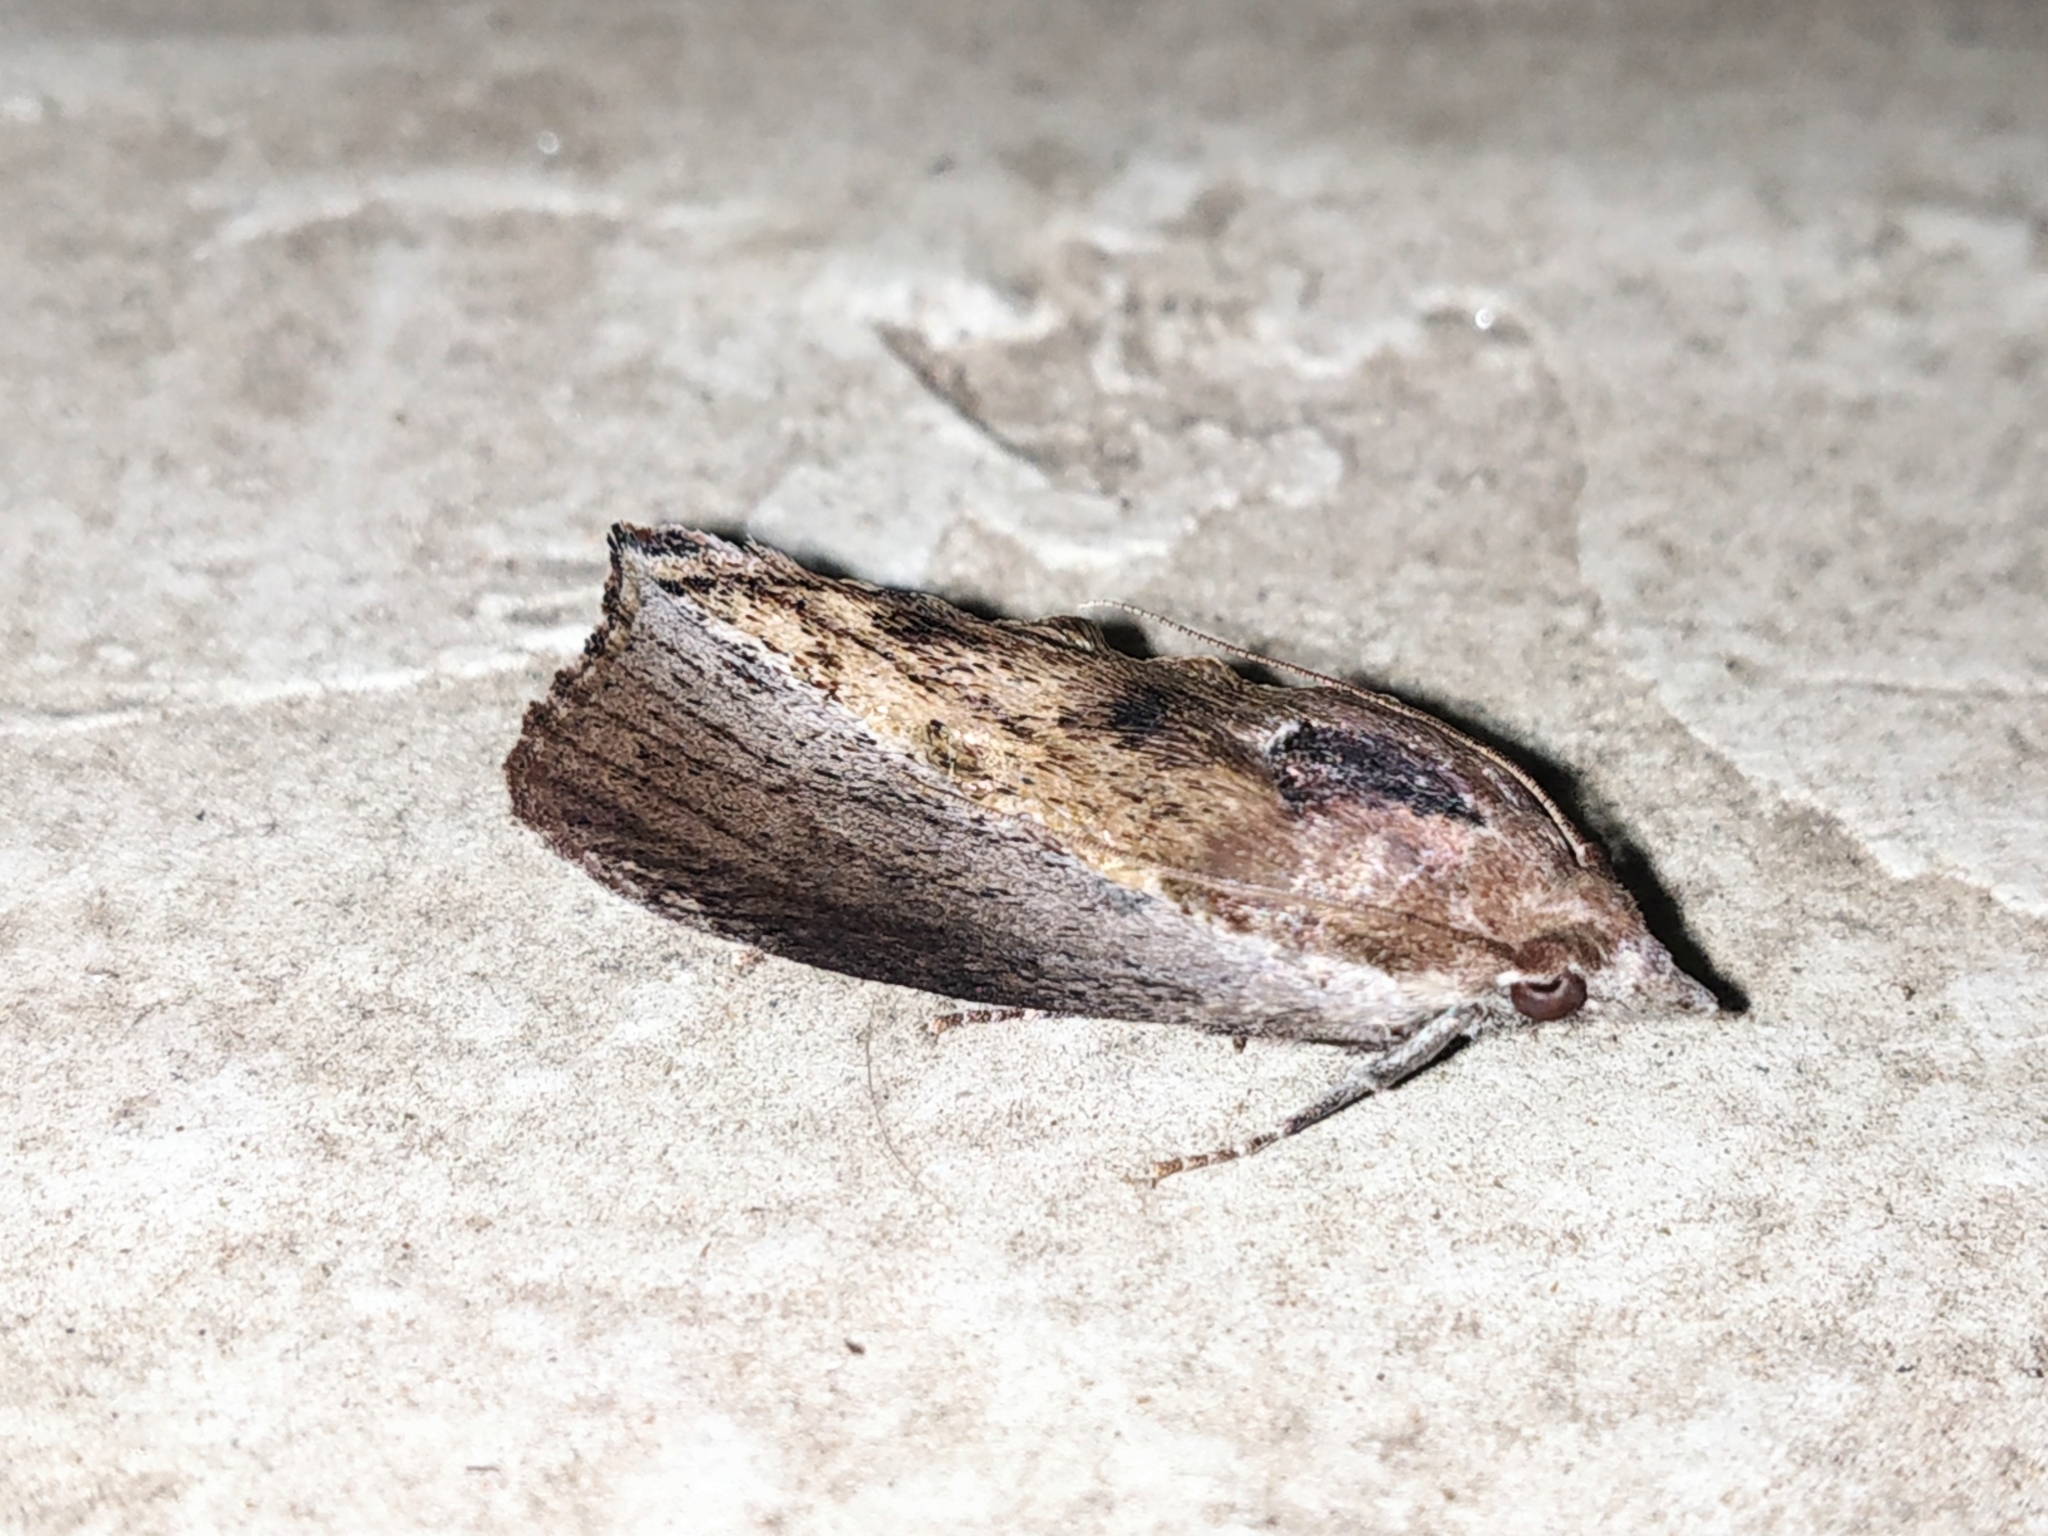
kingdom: Animalia
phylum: Arthropoda
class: Insecta
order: Lepidoptera
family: Pyralidae
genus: Galleria
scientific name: Galleria mellonella
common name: Greater wax moth
